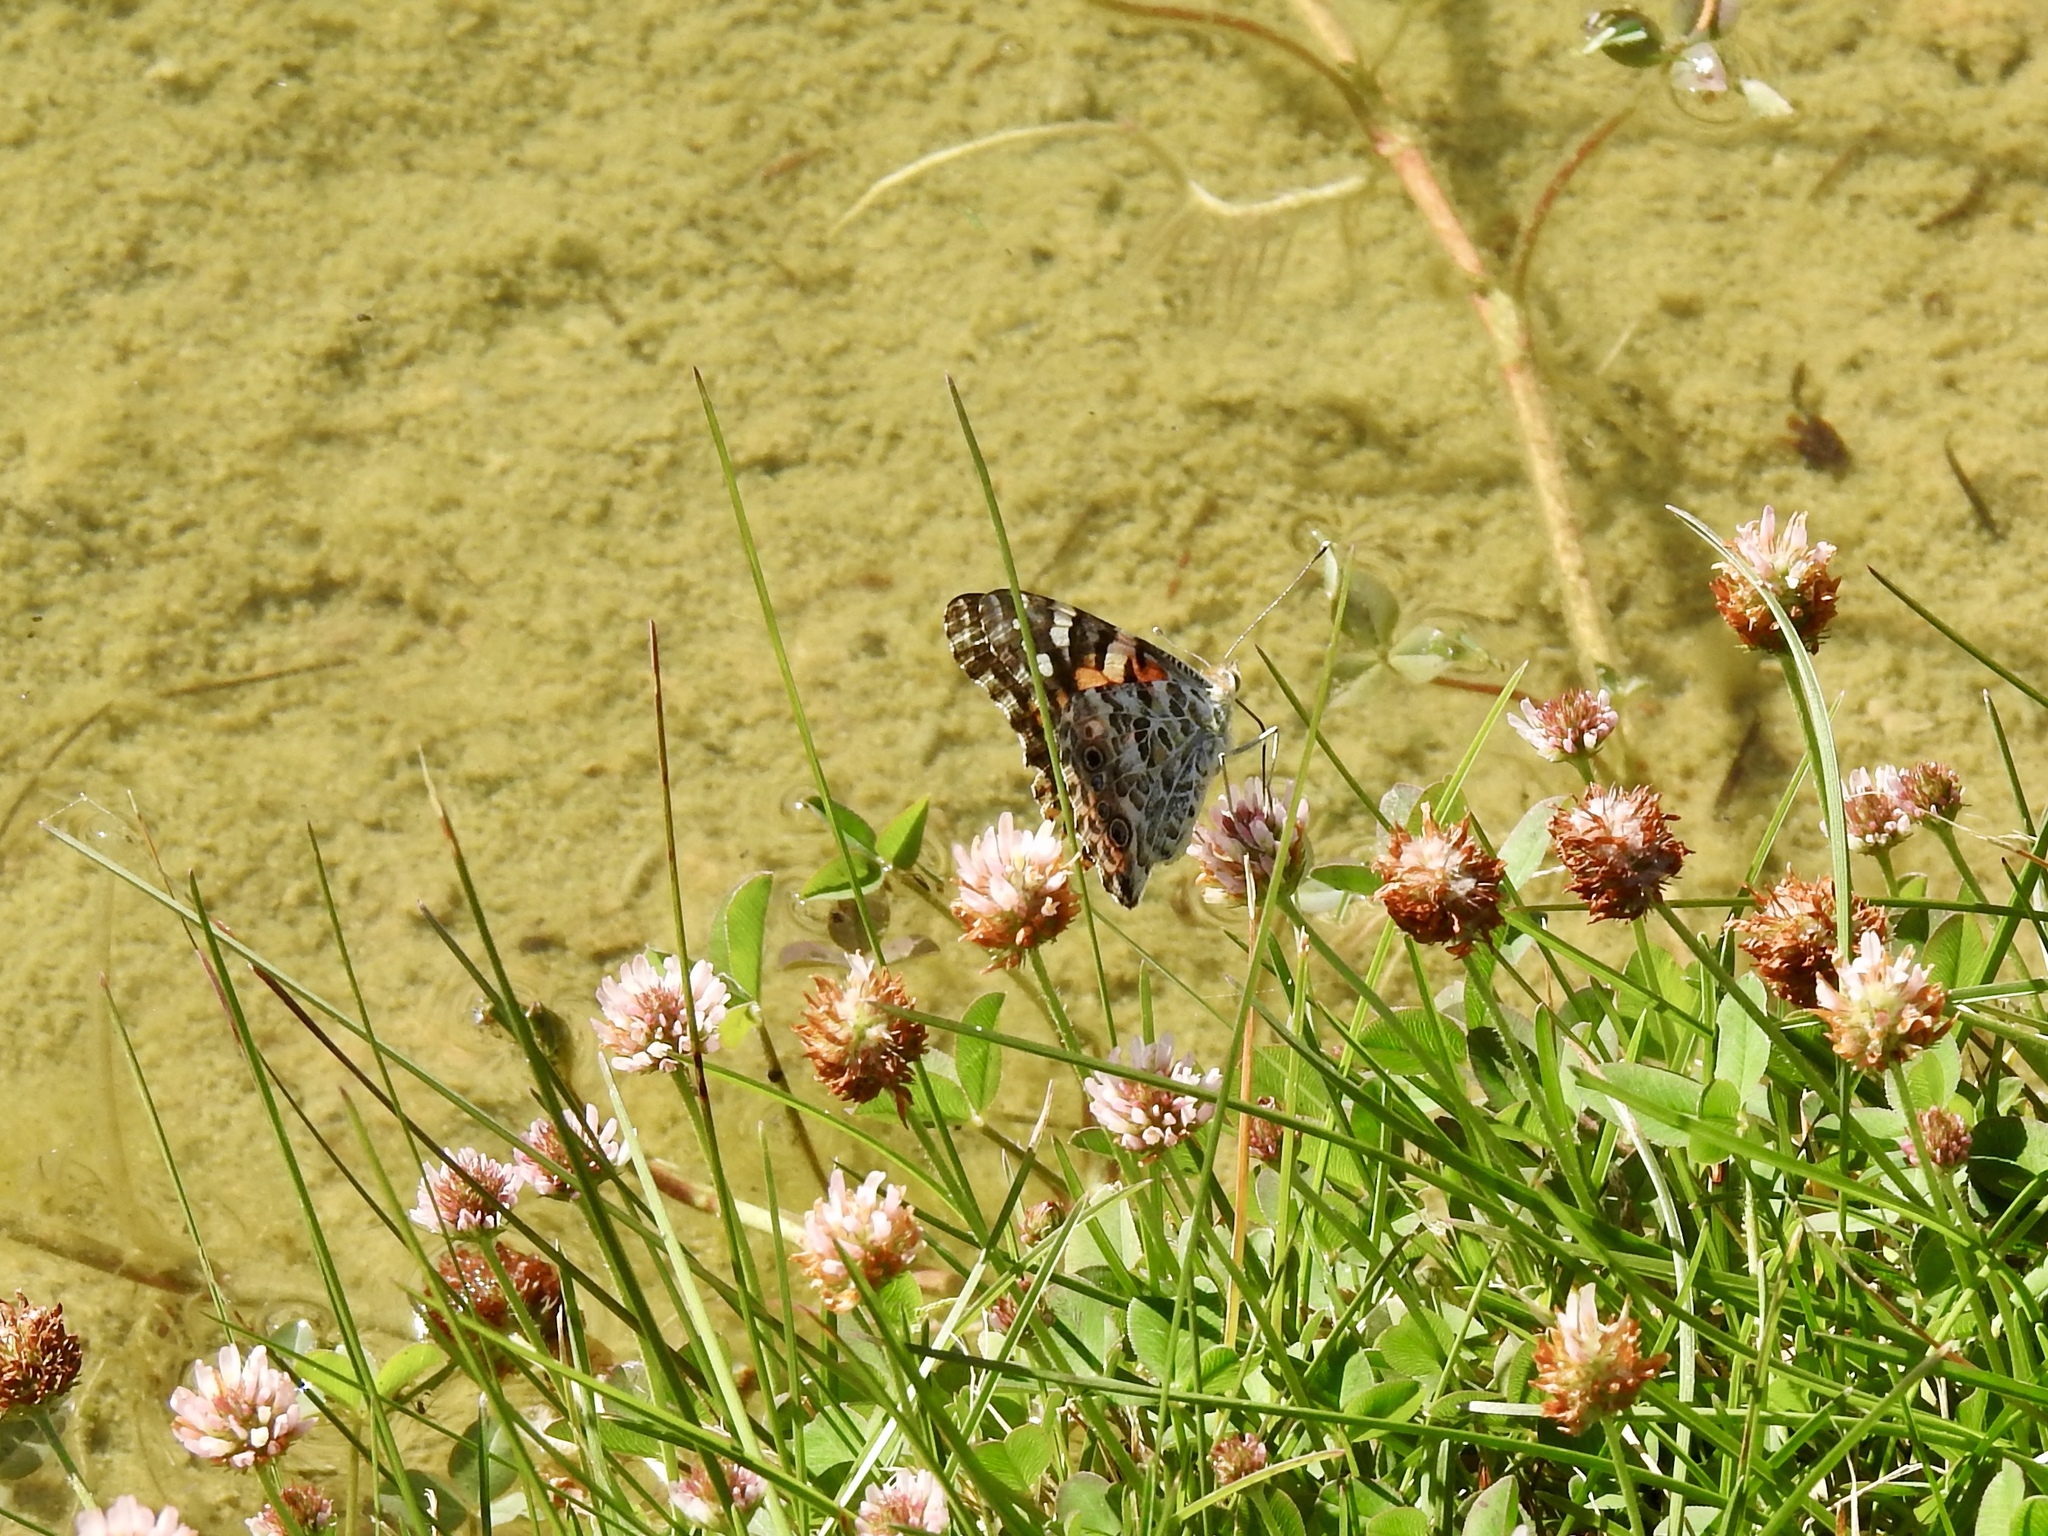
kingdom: Animalia
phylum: Arthropoda
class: Insecta
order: Lepidoptera
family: Nymphalidae
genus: Vanessa
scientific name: Vanessa cardui
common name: Painted lady
